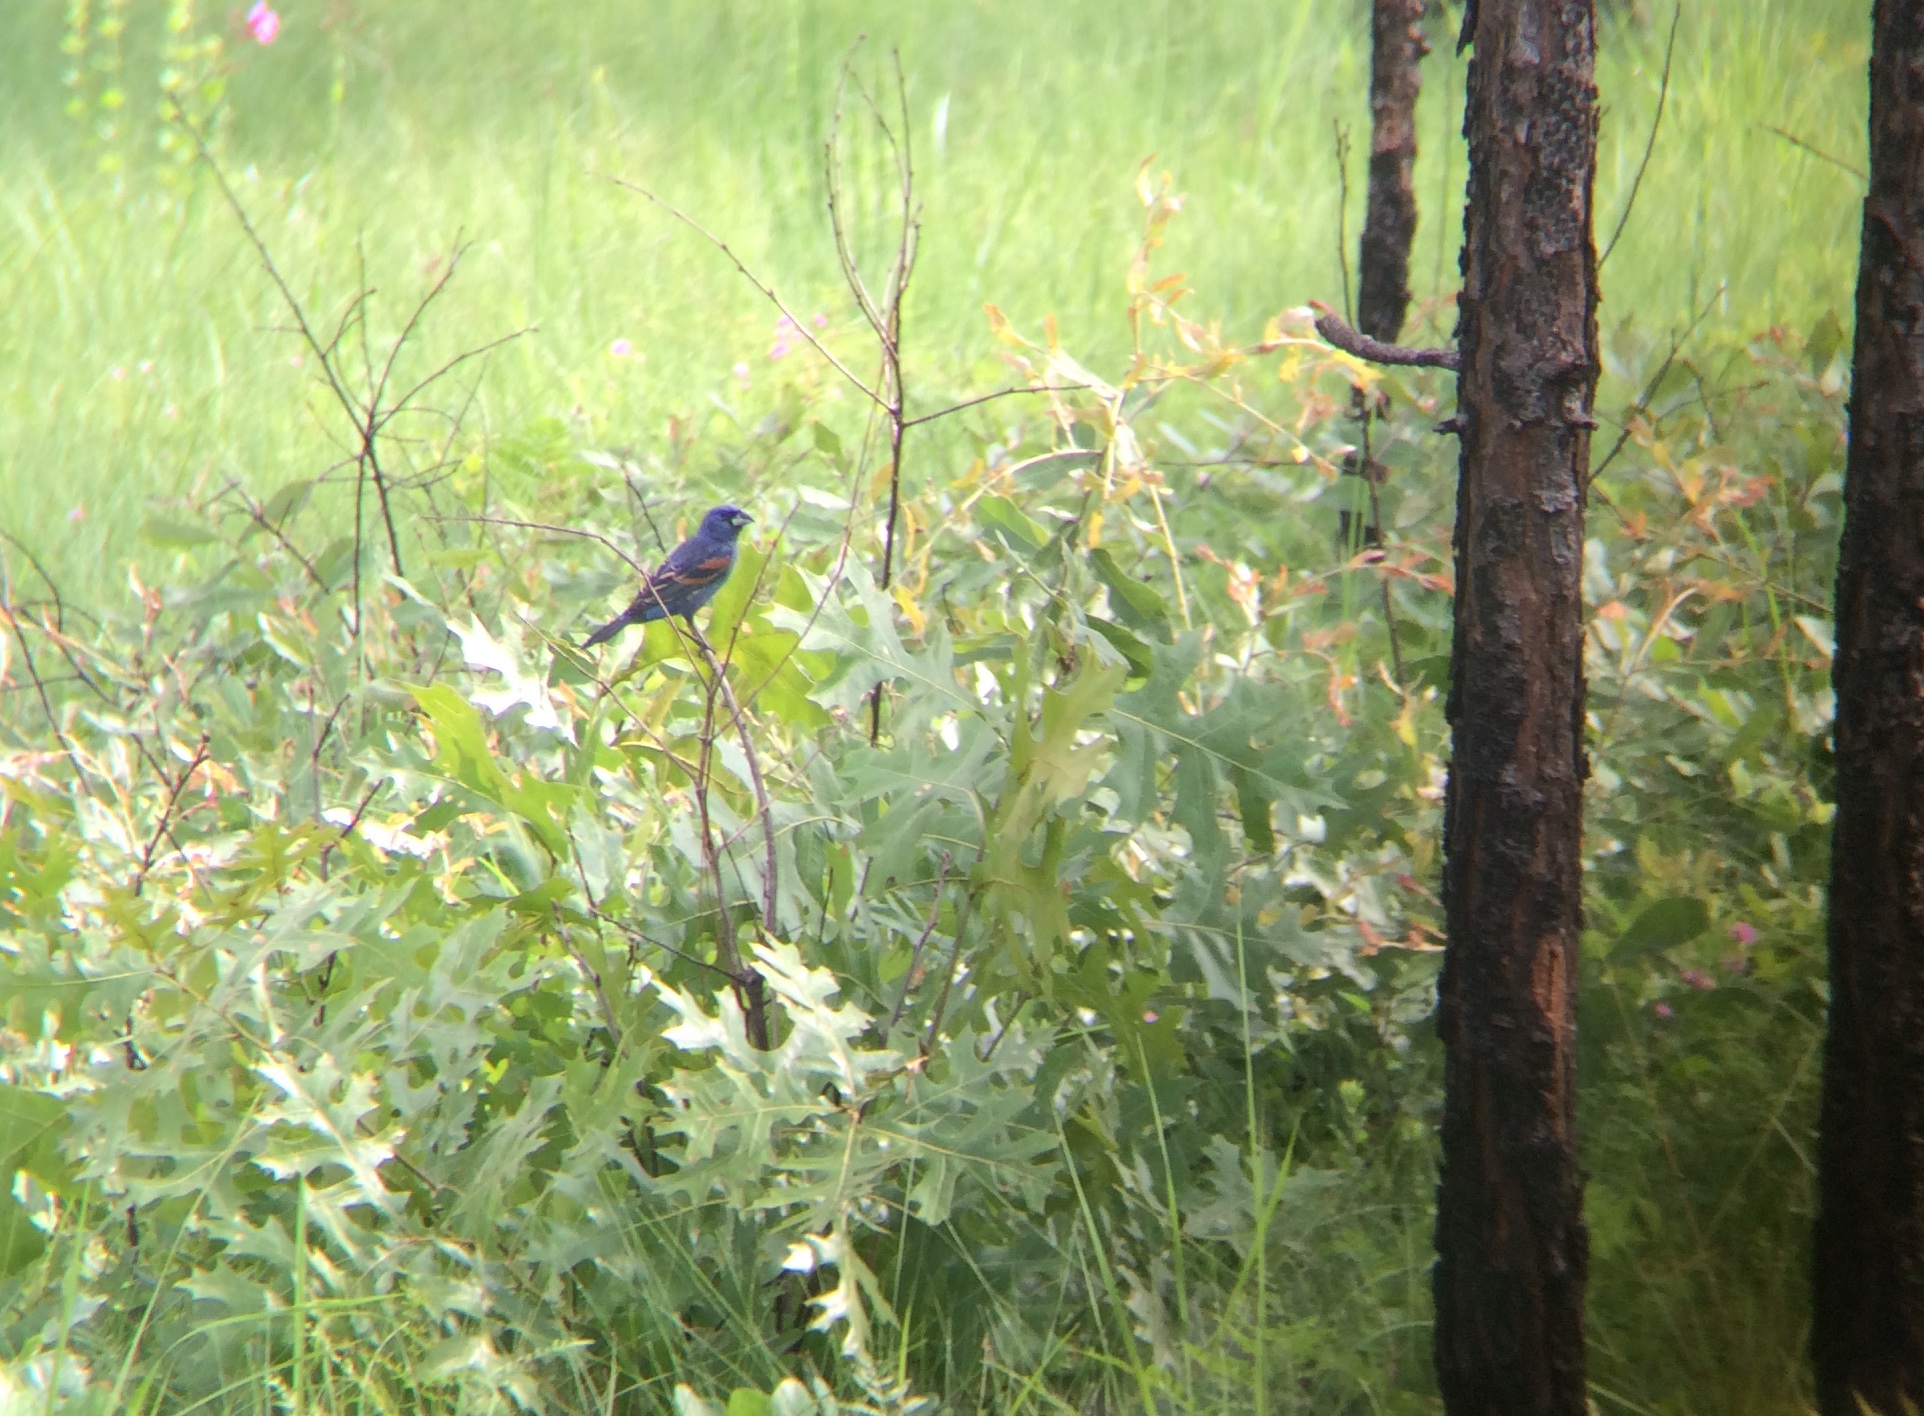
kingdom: Animalia
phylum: Chordata
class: Aves
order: Passeriformes
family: Cardinalidae
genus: Passerina
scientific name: Passerina caerulea
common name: Blue grosbeak
